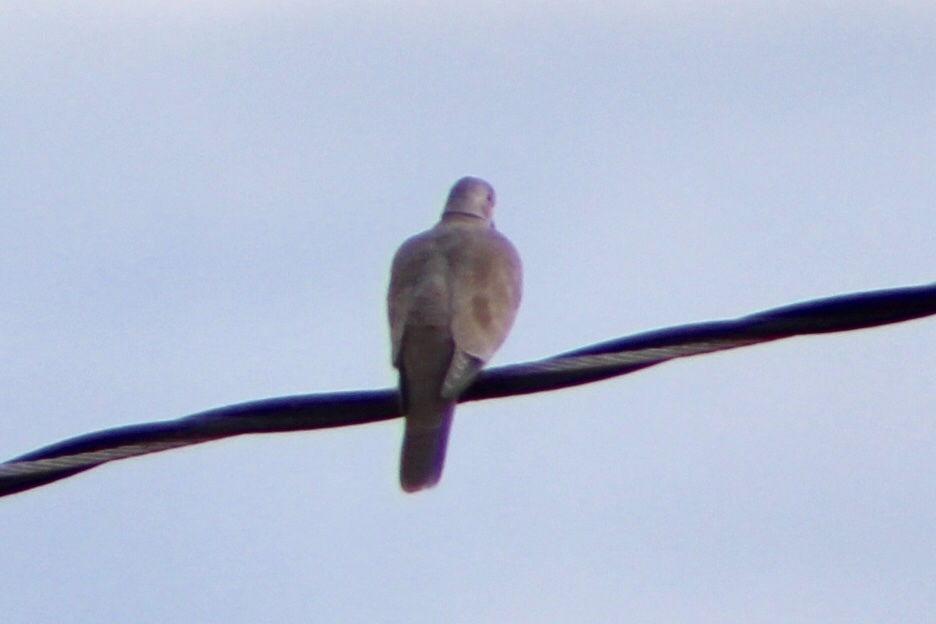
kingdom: Animalia
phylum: Chordata
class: Aves
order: Columbiformes
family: Columbidae
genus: Streptopelia
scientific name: Streptopelia decaocto
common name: Eurasian collared dove
